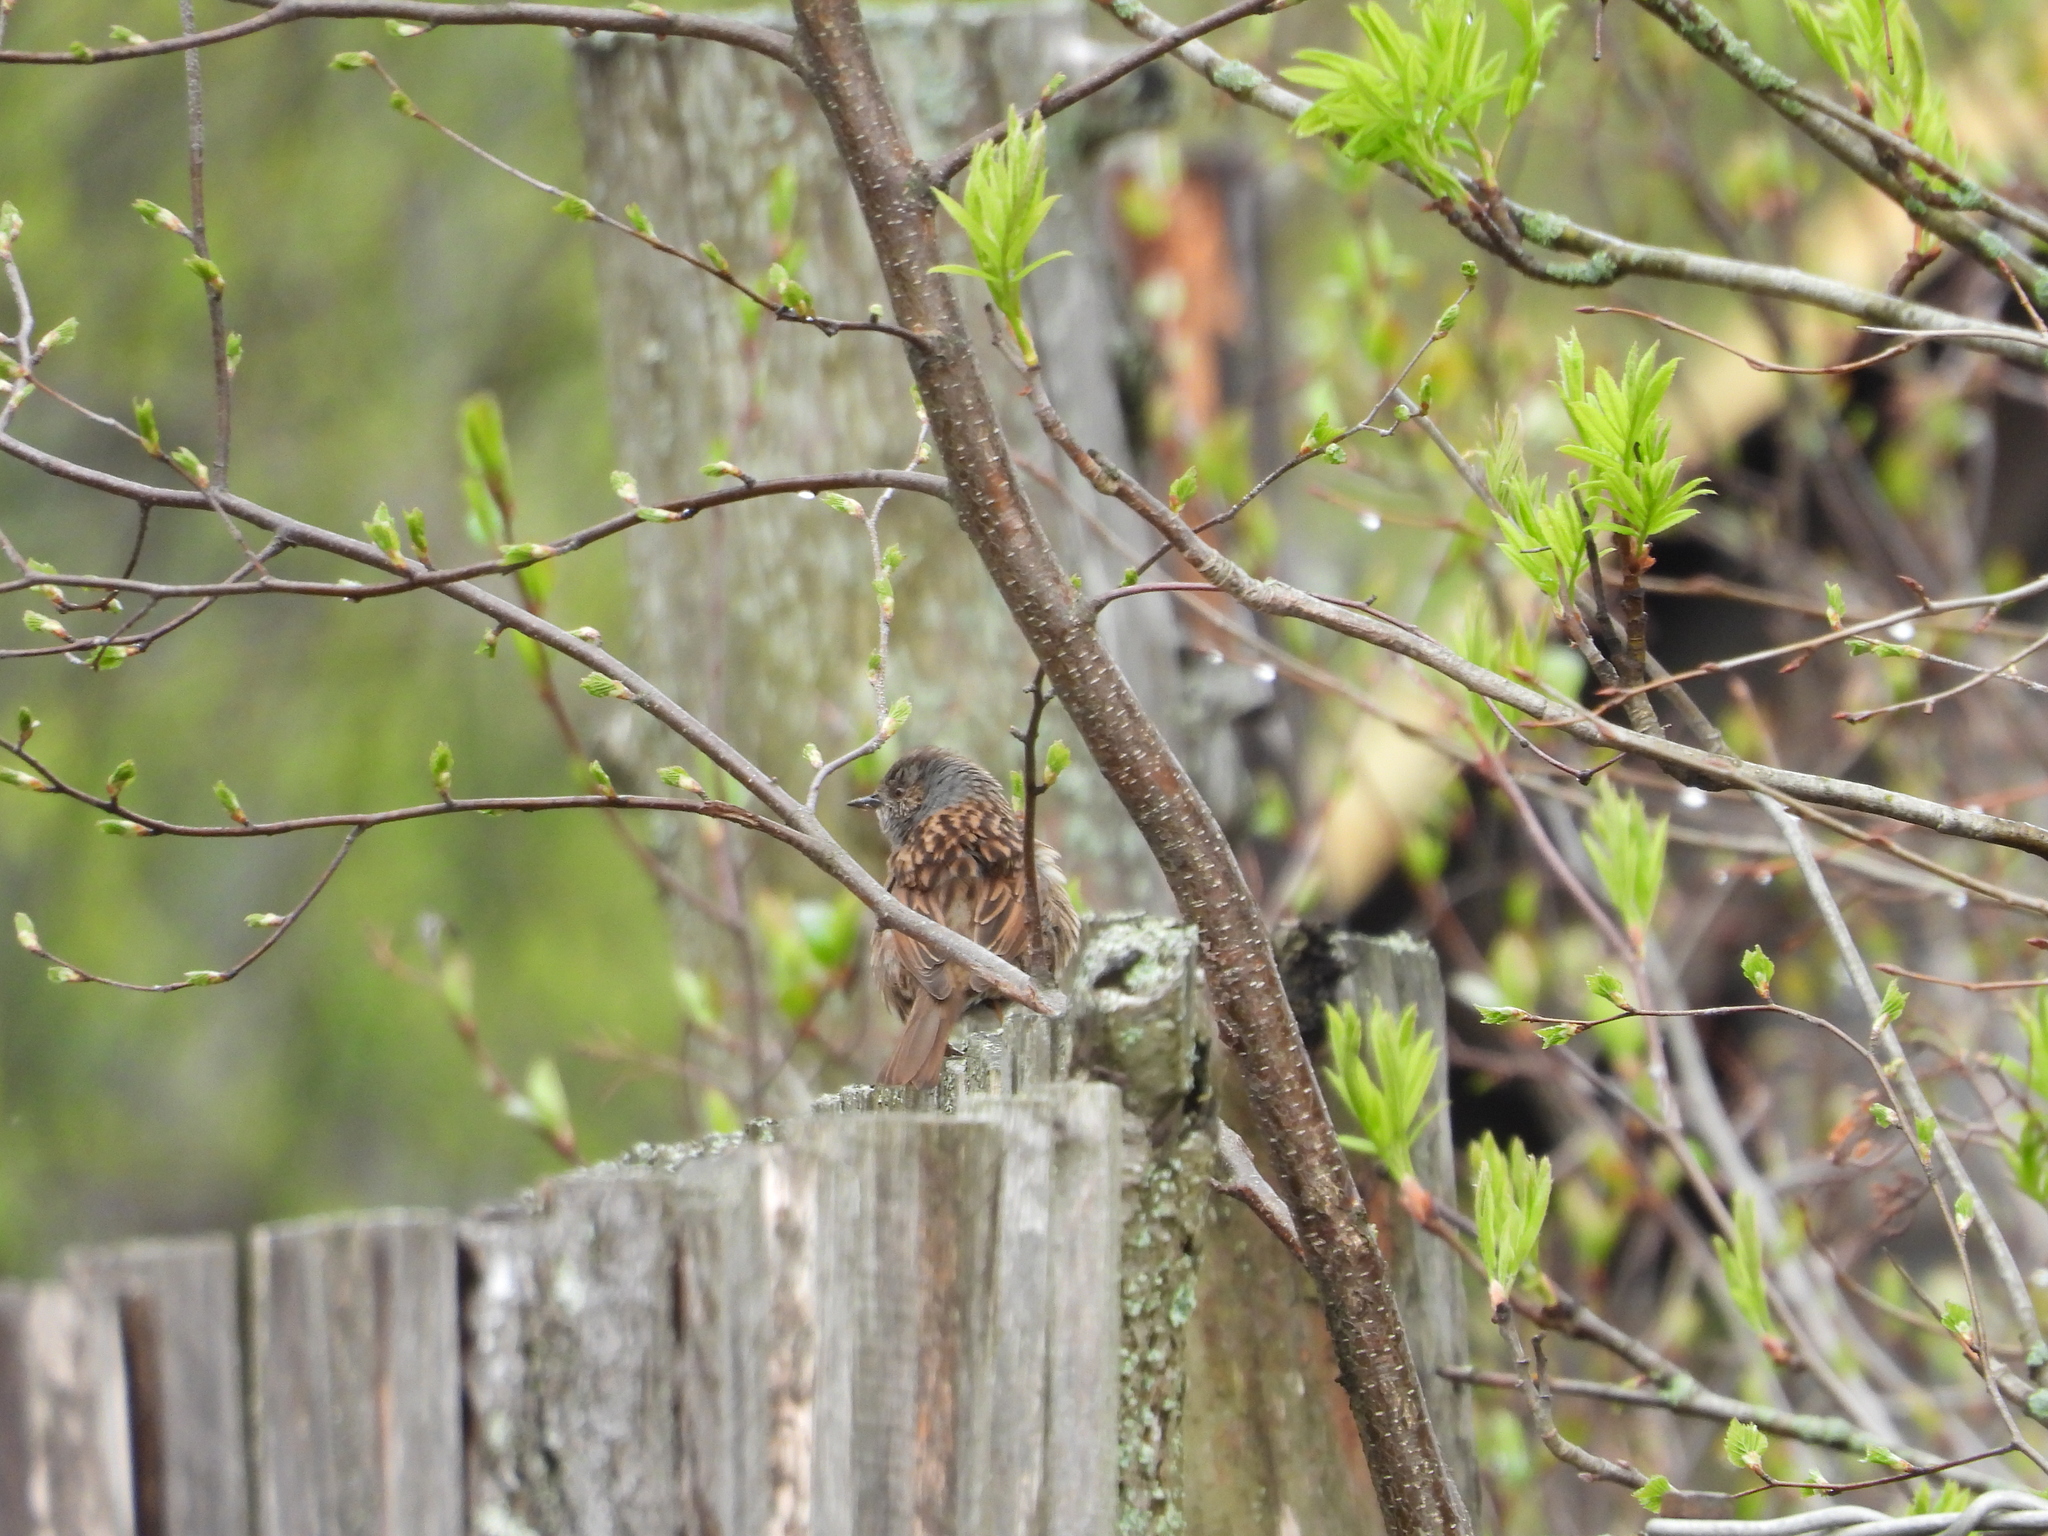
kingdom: Animalia
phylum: Chordata
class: Aves
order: Passeriformes
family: Prunellidae
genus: Prunella
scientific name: Prunella modularis
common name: Dunnock
